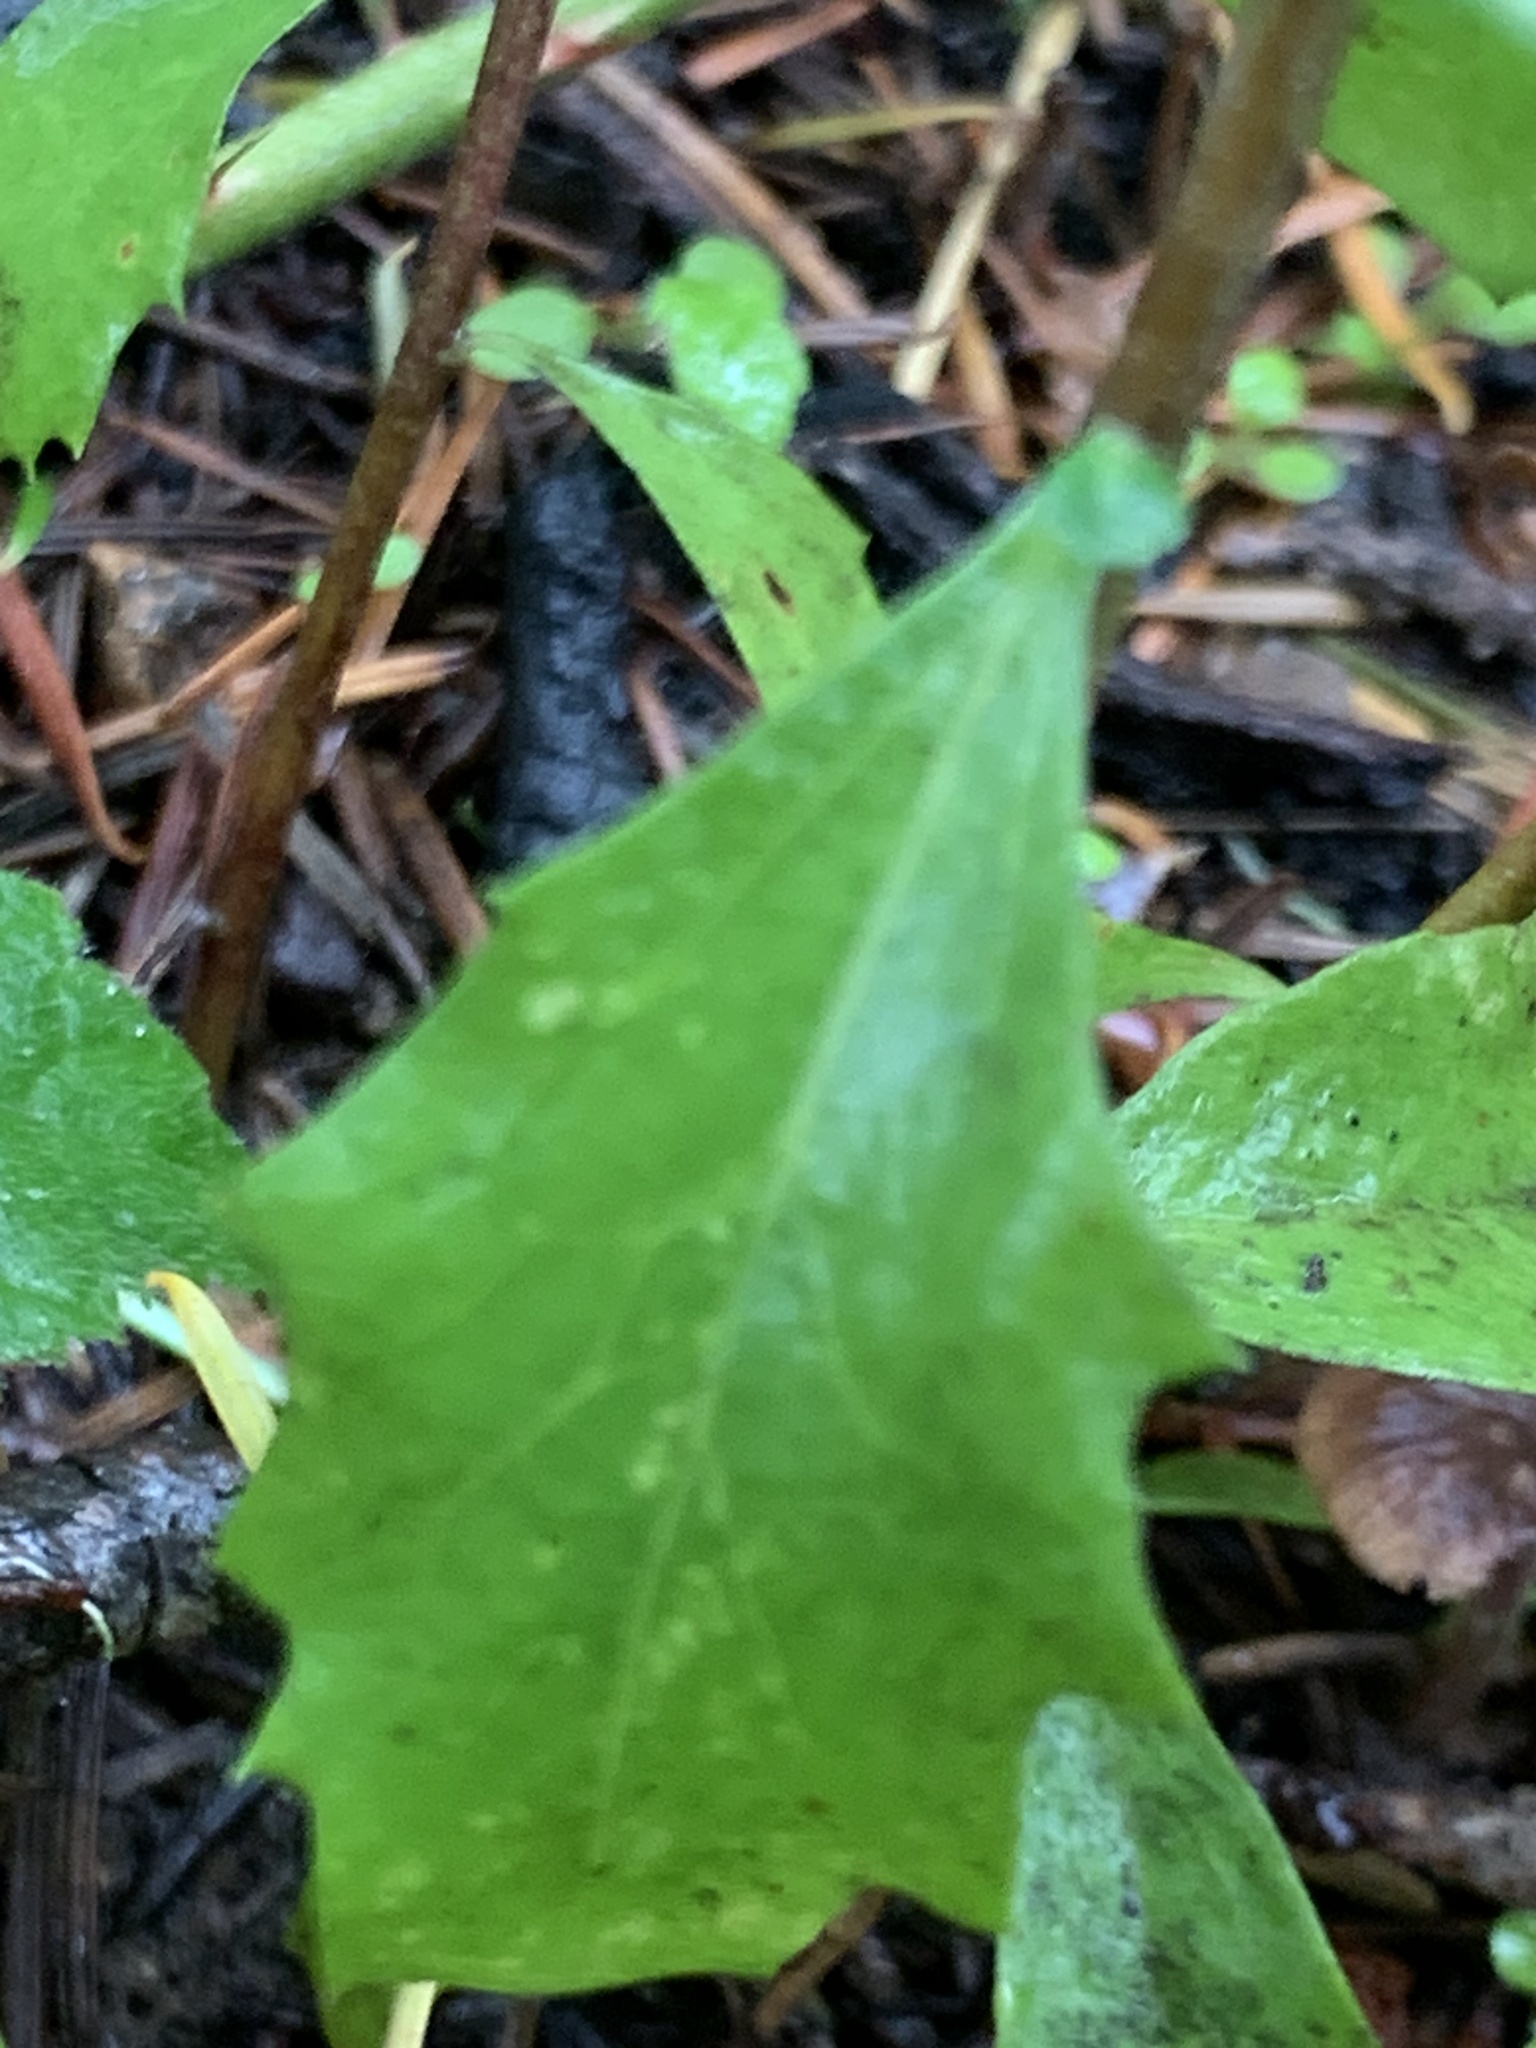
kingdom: Animalia
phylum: Arthropoda
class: Insecta
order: Diptera
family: Cecidomyiidae
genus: Rhopalomyia
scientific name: Rhopalomyia californica
